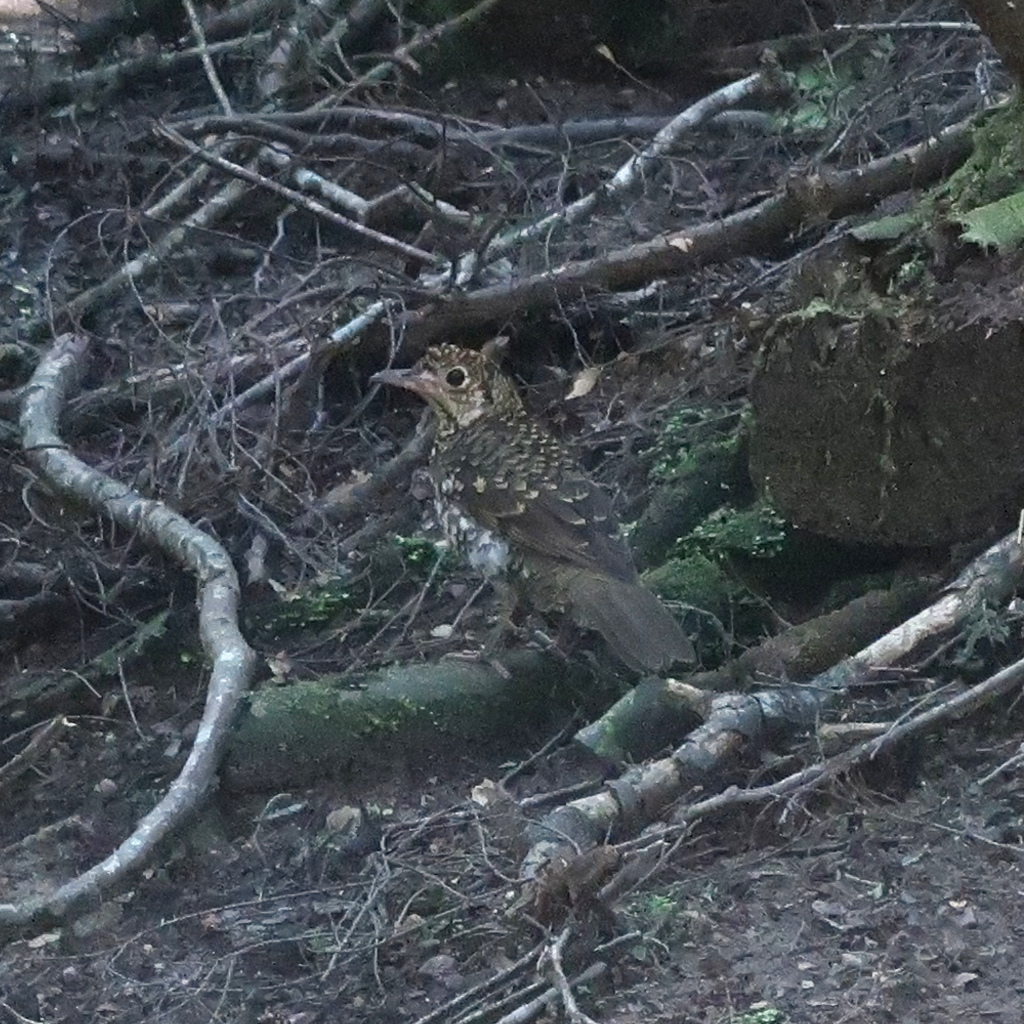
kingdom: Animalia
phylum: Chordata
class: Aves
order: Passeriformes
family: Turdidae
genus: Zoothera
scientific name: Zoothera lunulata
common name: Bassian thrush
